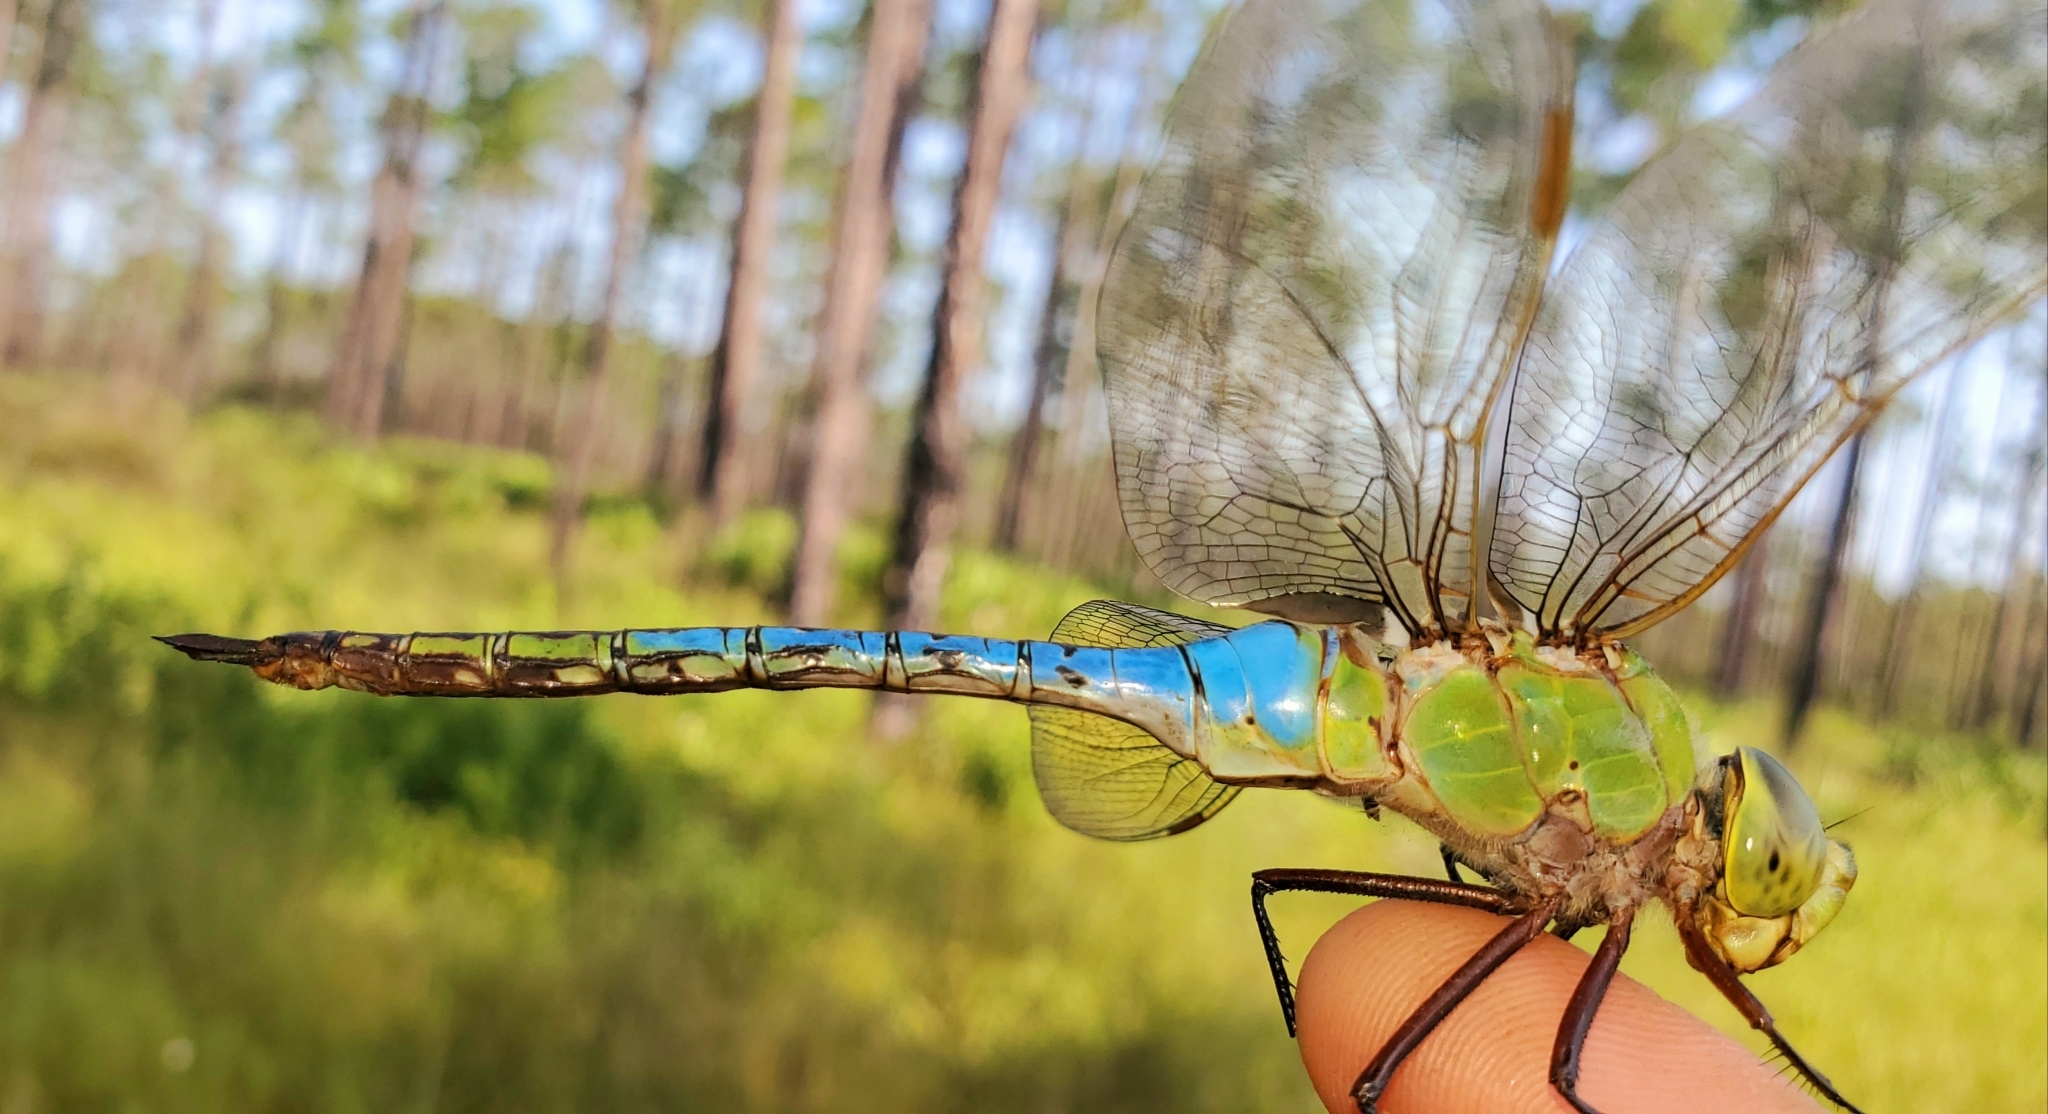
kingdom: Animalia
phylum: Arthropoda
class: Insecta
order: Odonata
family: Aeshnidae
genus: Anax
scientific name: Anax junius
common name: Common green darner
